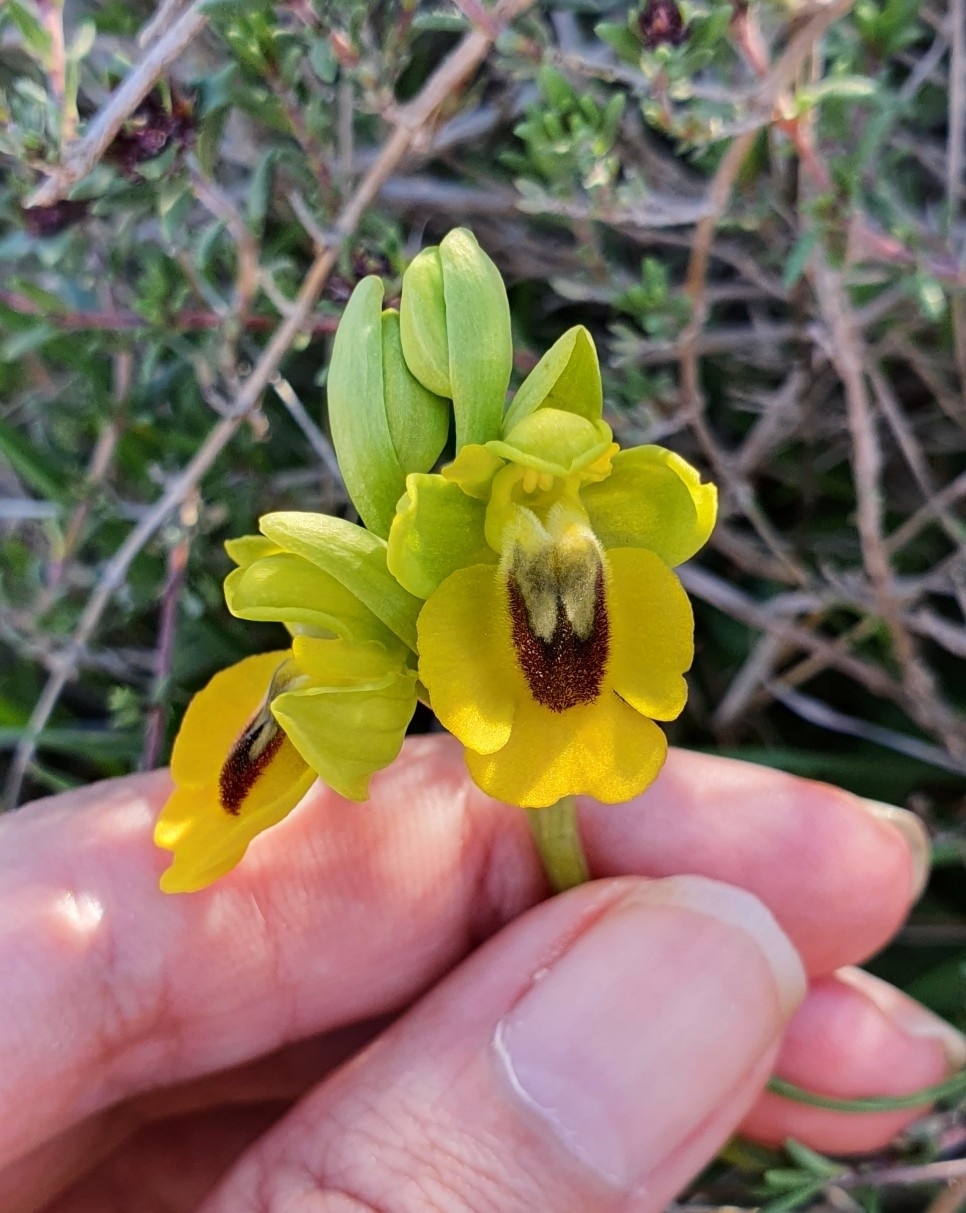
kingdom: Plantae
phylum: Tracheophyta
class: Liliopsida
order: Asparagales
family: Orchidaceae
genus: Ophrys
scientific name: Ophrys lutea
